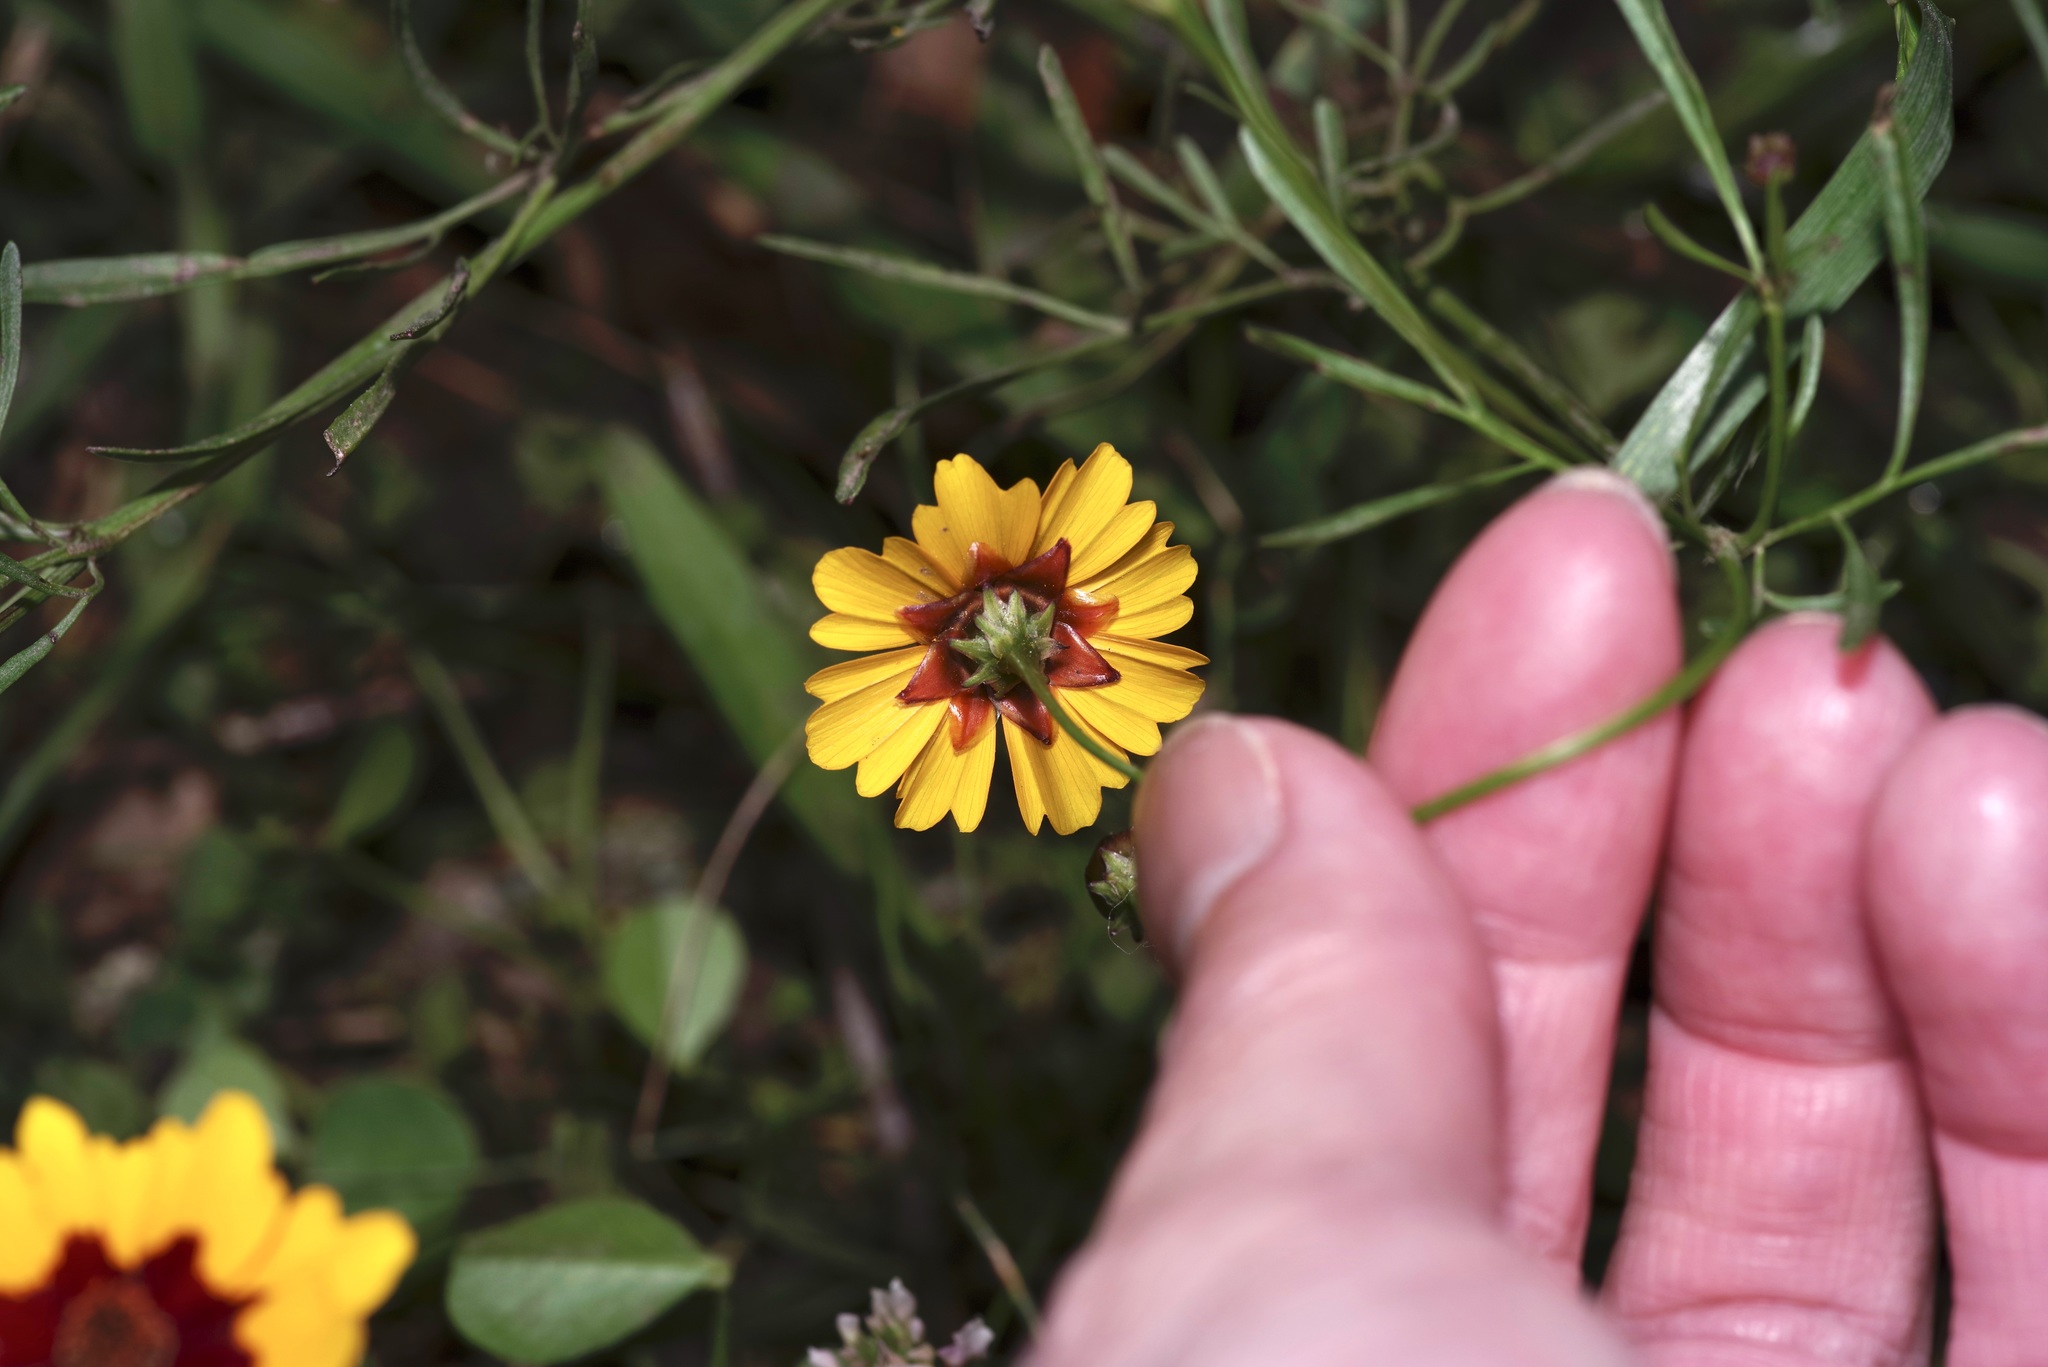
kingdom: Plantae
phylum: Tracheophyta
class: Magnoliopsida
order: Asterales
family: Asteraceae
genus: Coreopsis
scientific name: Coreopsis tinctoria
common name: Garden tickseed
